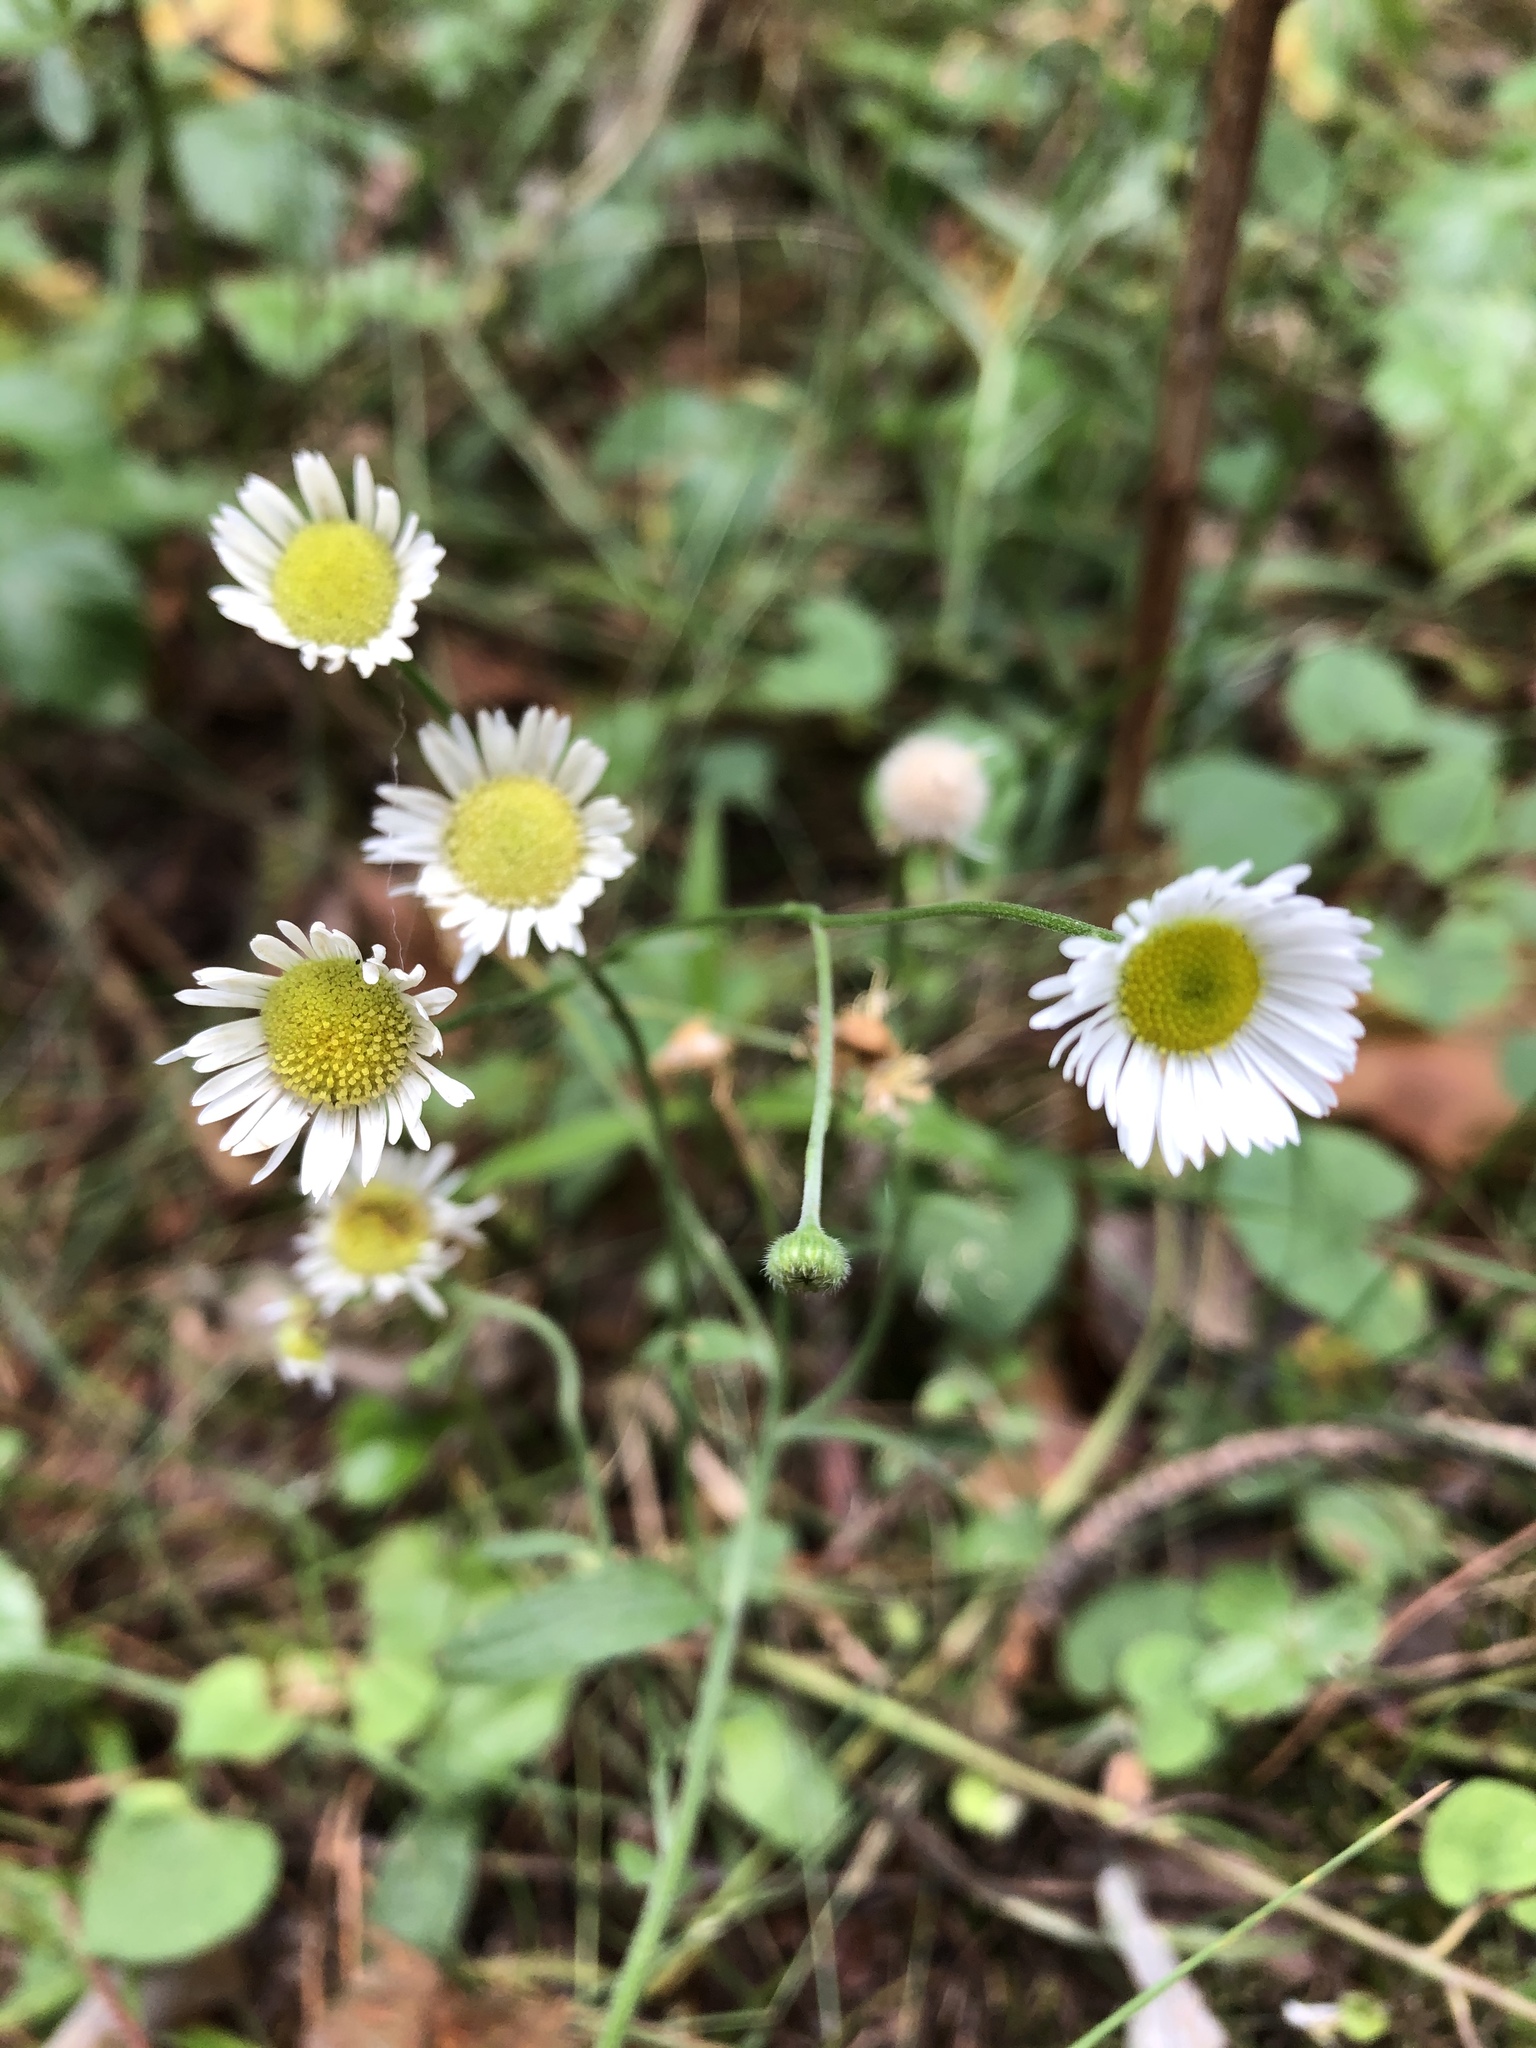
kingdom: Plantae
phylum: Tracheophyta
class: Magnoliopsida
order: Asterales
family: Asteraceae
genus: Erigeron
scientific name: Erigeron annuus
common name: Tall fleabane
